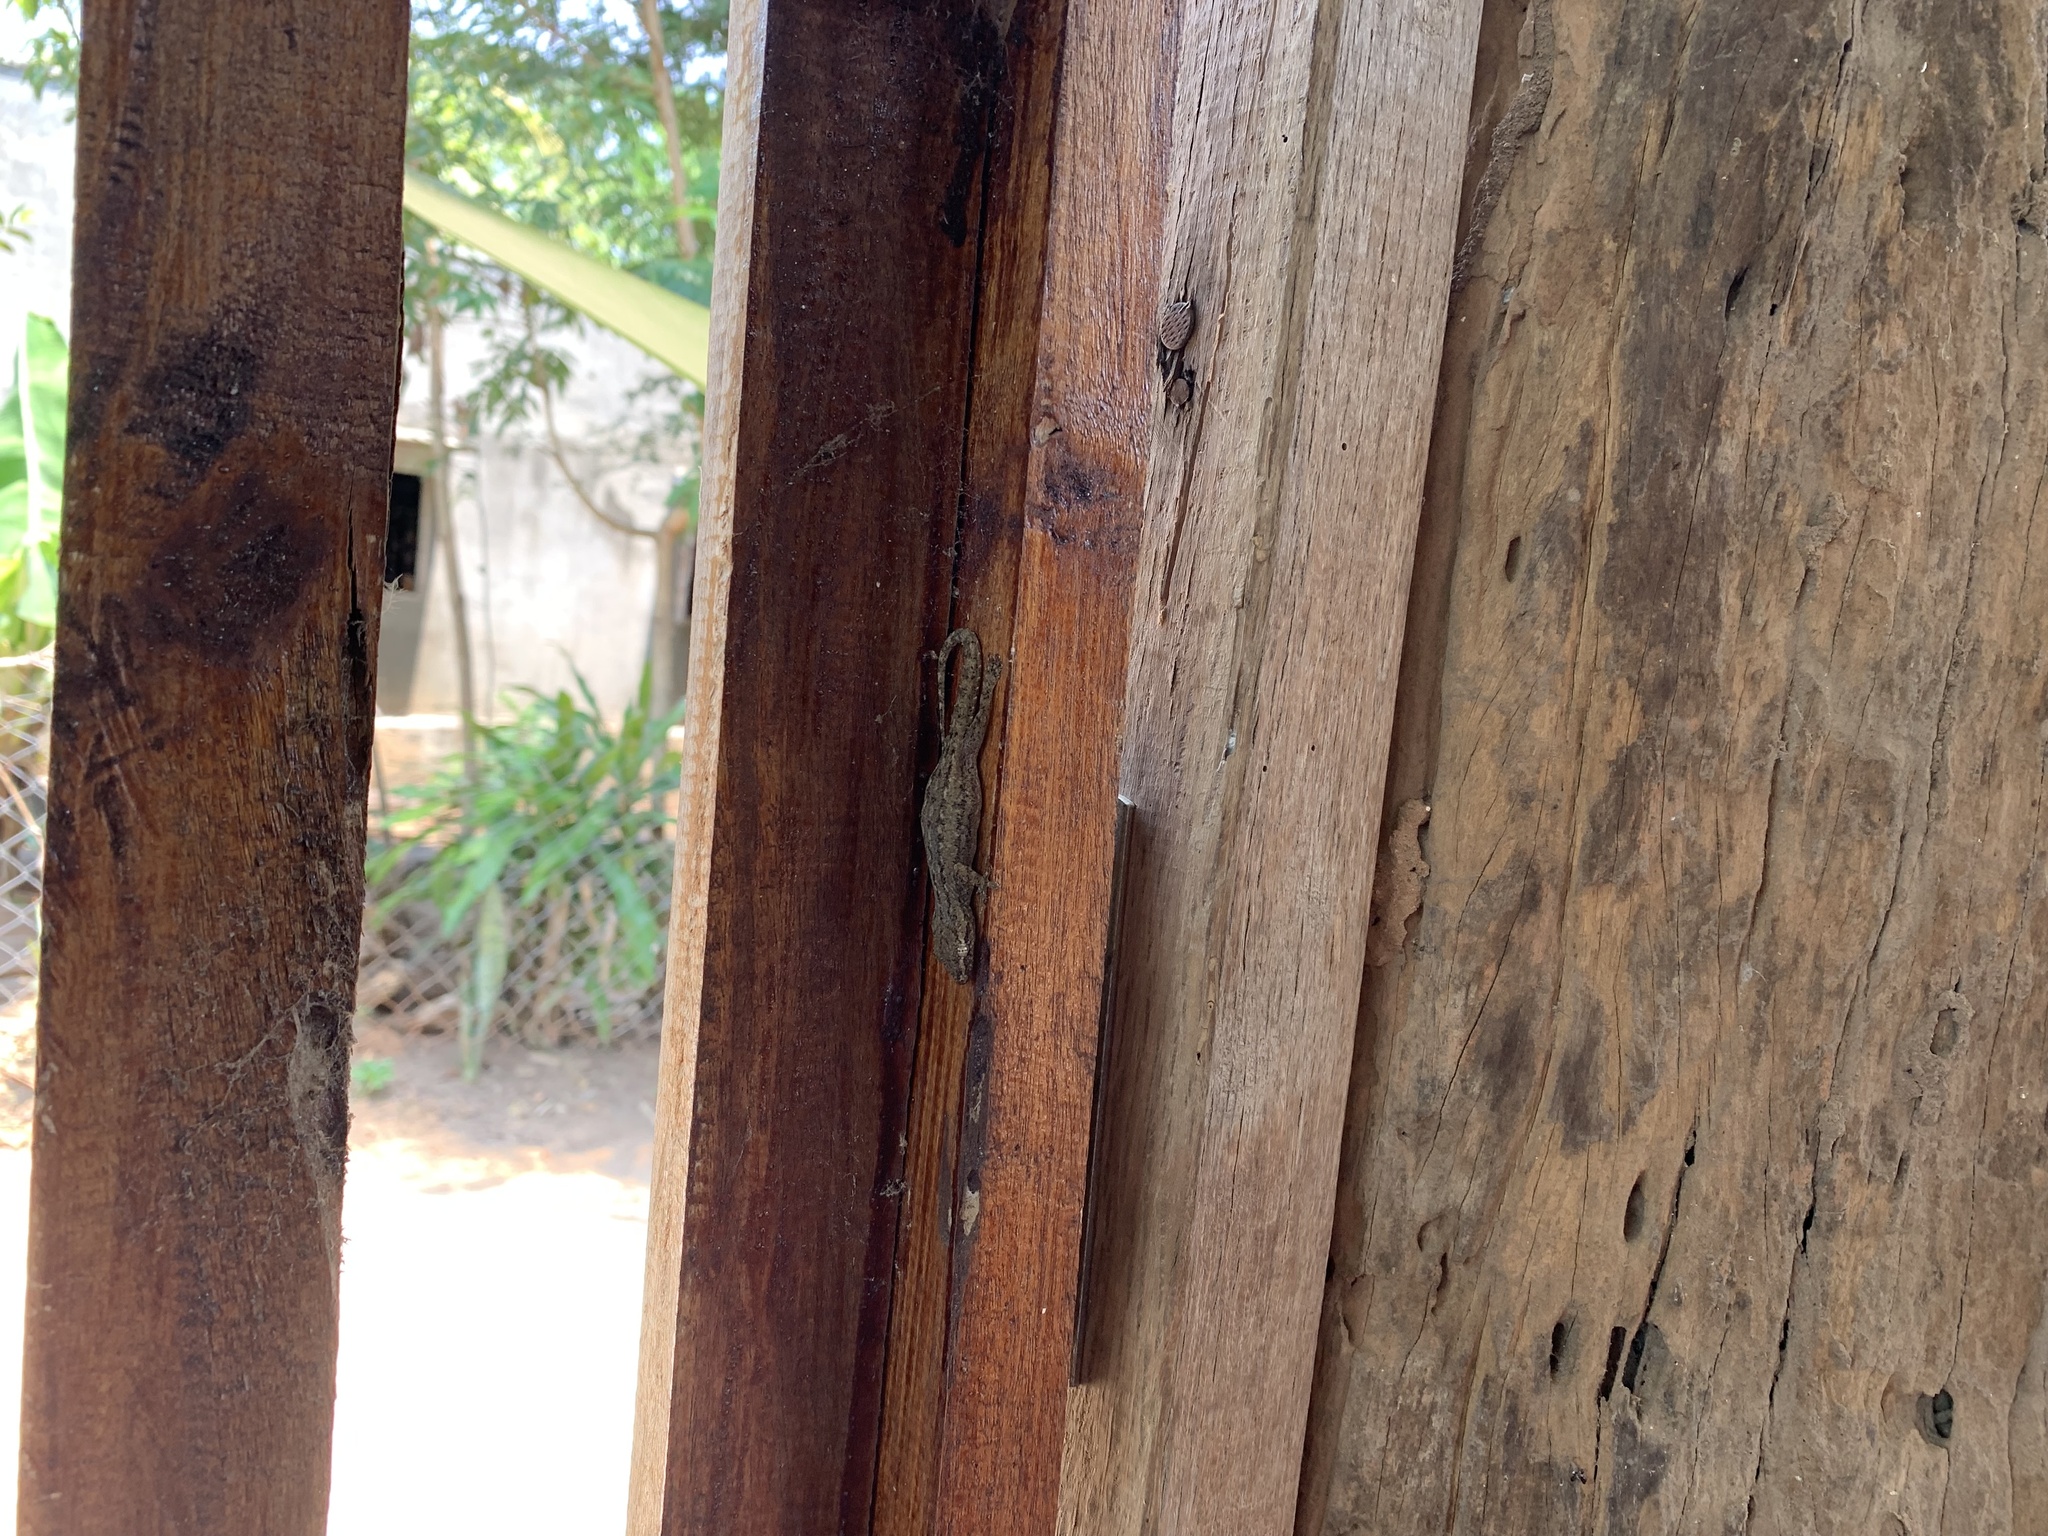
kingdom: Animalia
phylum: Chordata
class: Squamata
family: Gekkonidae
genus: Hemidactylus
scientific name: Hemidactylus frenatus
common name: Common house gecko
